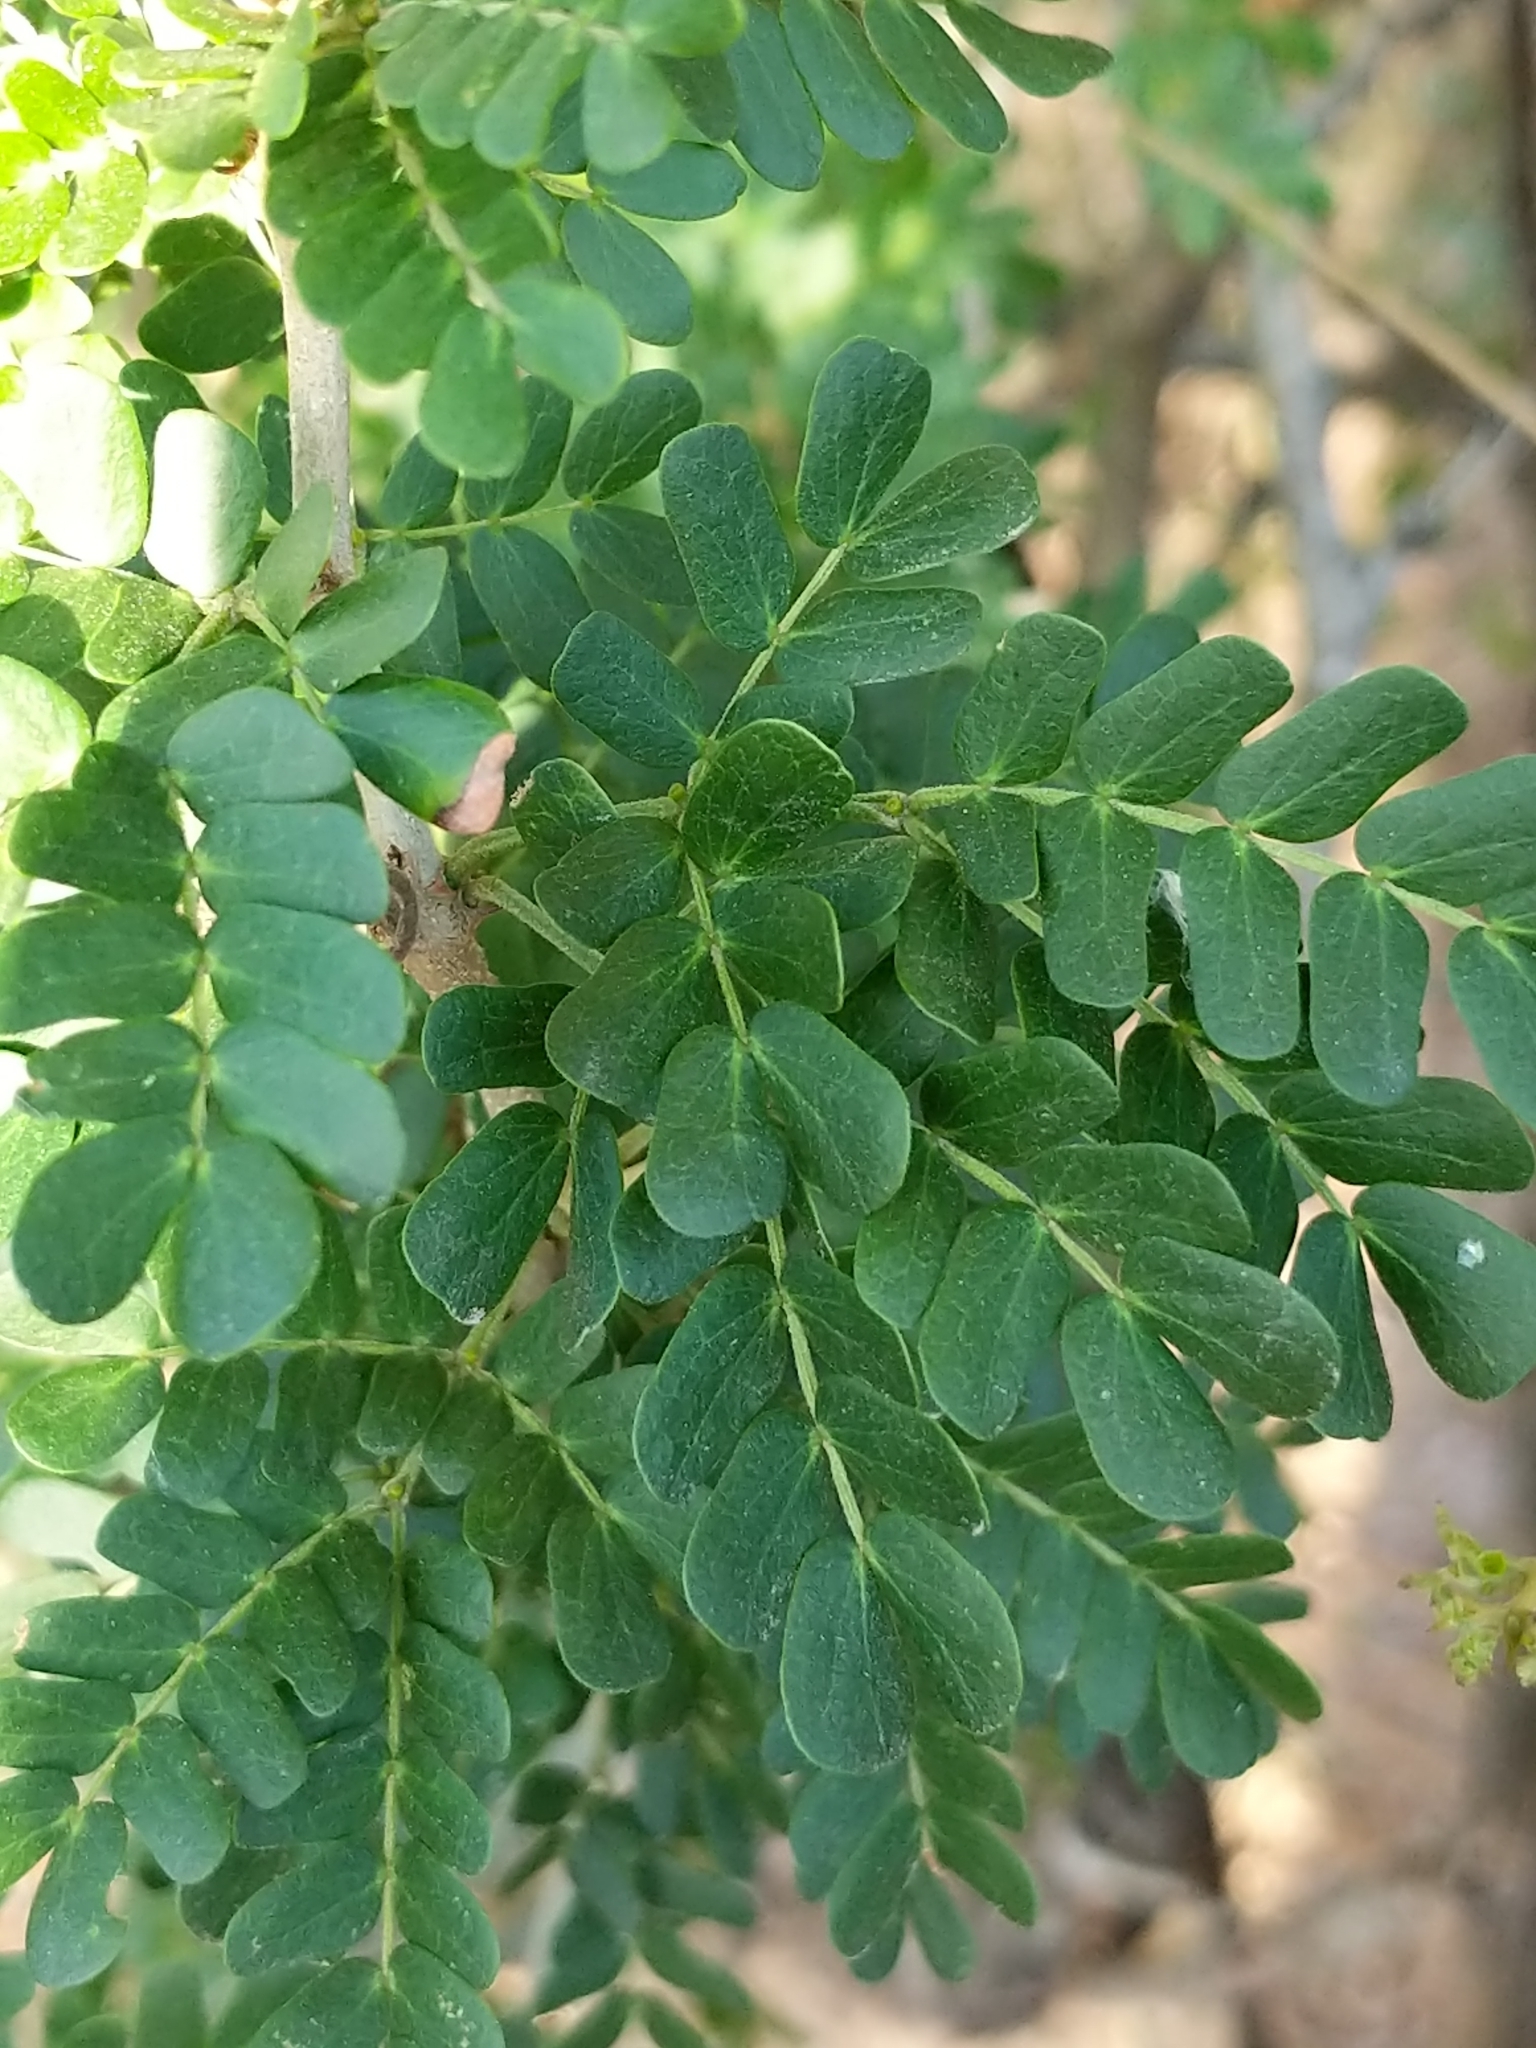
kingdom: Plantae
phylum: Tracheophyta
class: Magnoliopsida
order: Fabales
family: Fabaceae
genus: Ebenopsis
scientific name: Ebenopsis ebano
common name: Ebony blackbead
